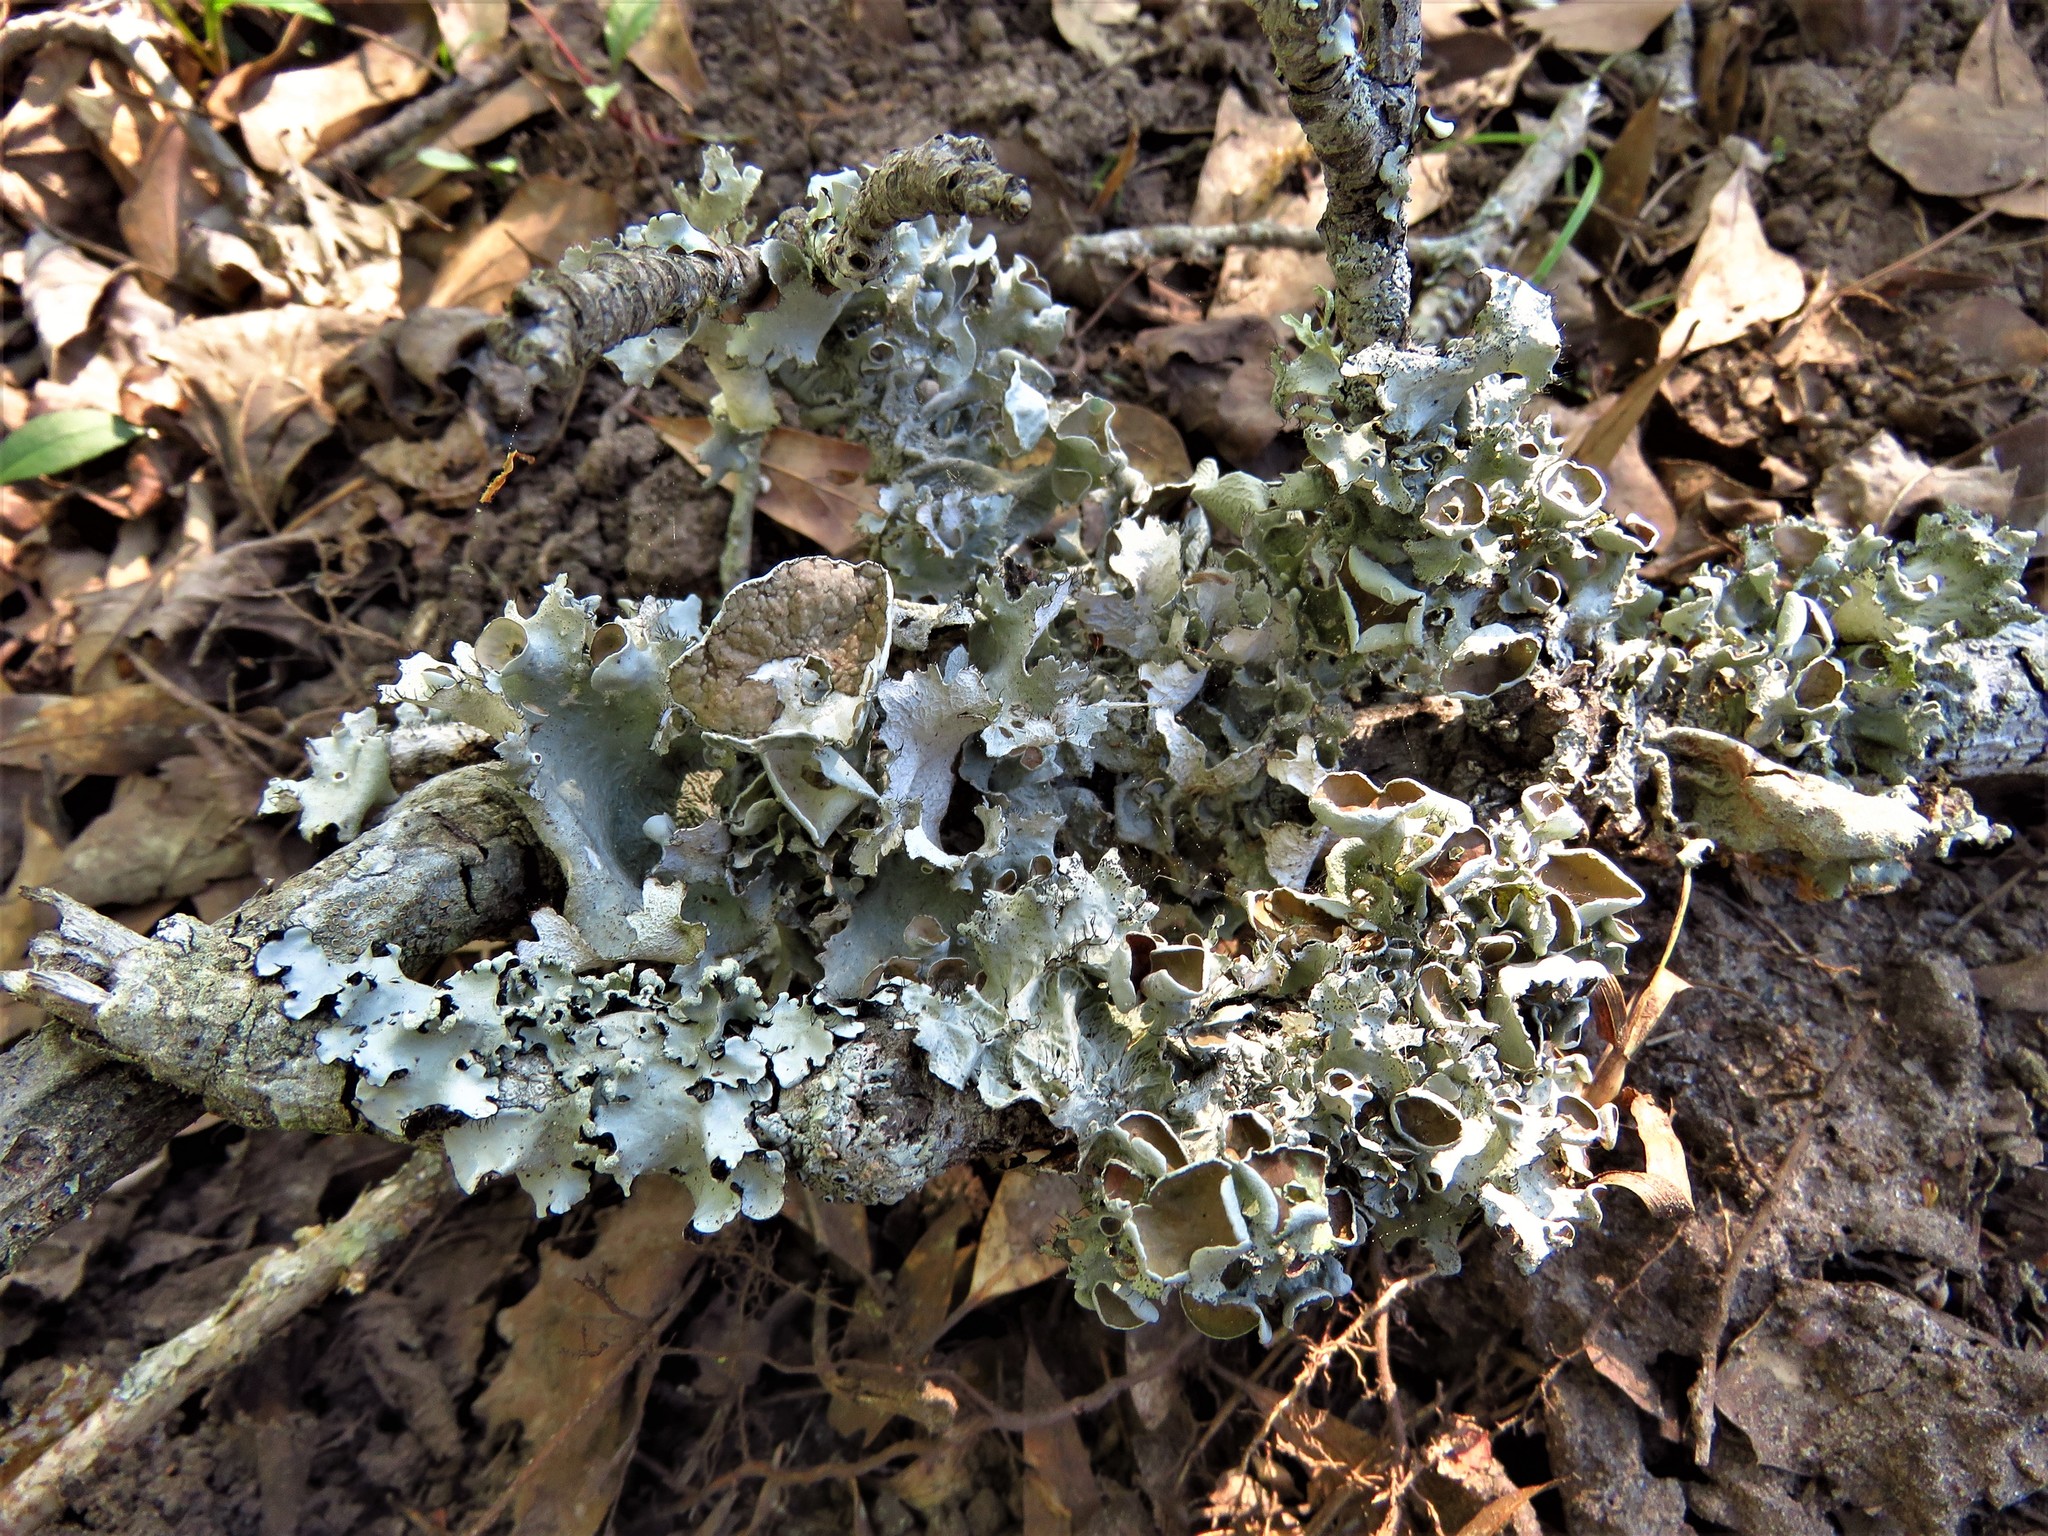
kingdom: Fungi
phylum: Ascomycota
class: Lecanoromycetes
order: Lecanorales
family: Parmeliaceae
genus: Parmotrema
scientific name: Parmotrema perforatum
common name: Perforated ruffle lichen
